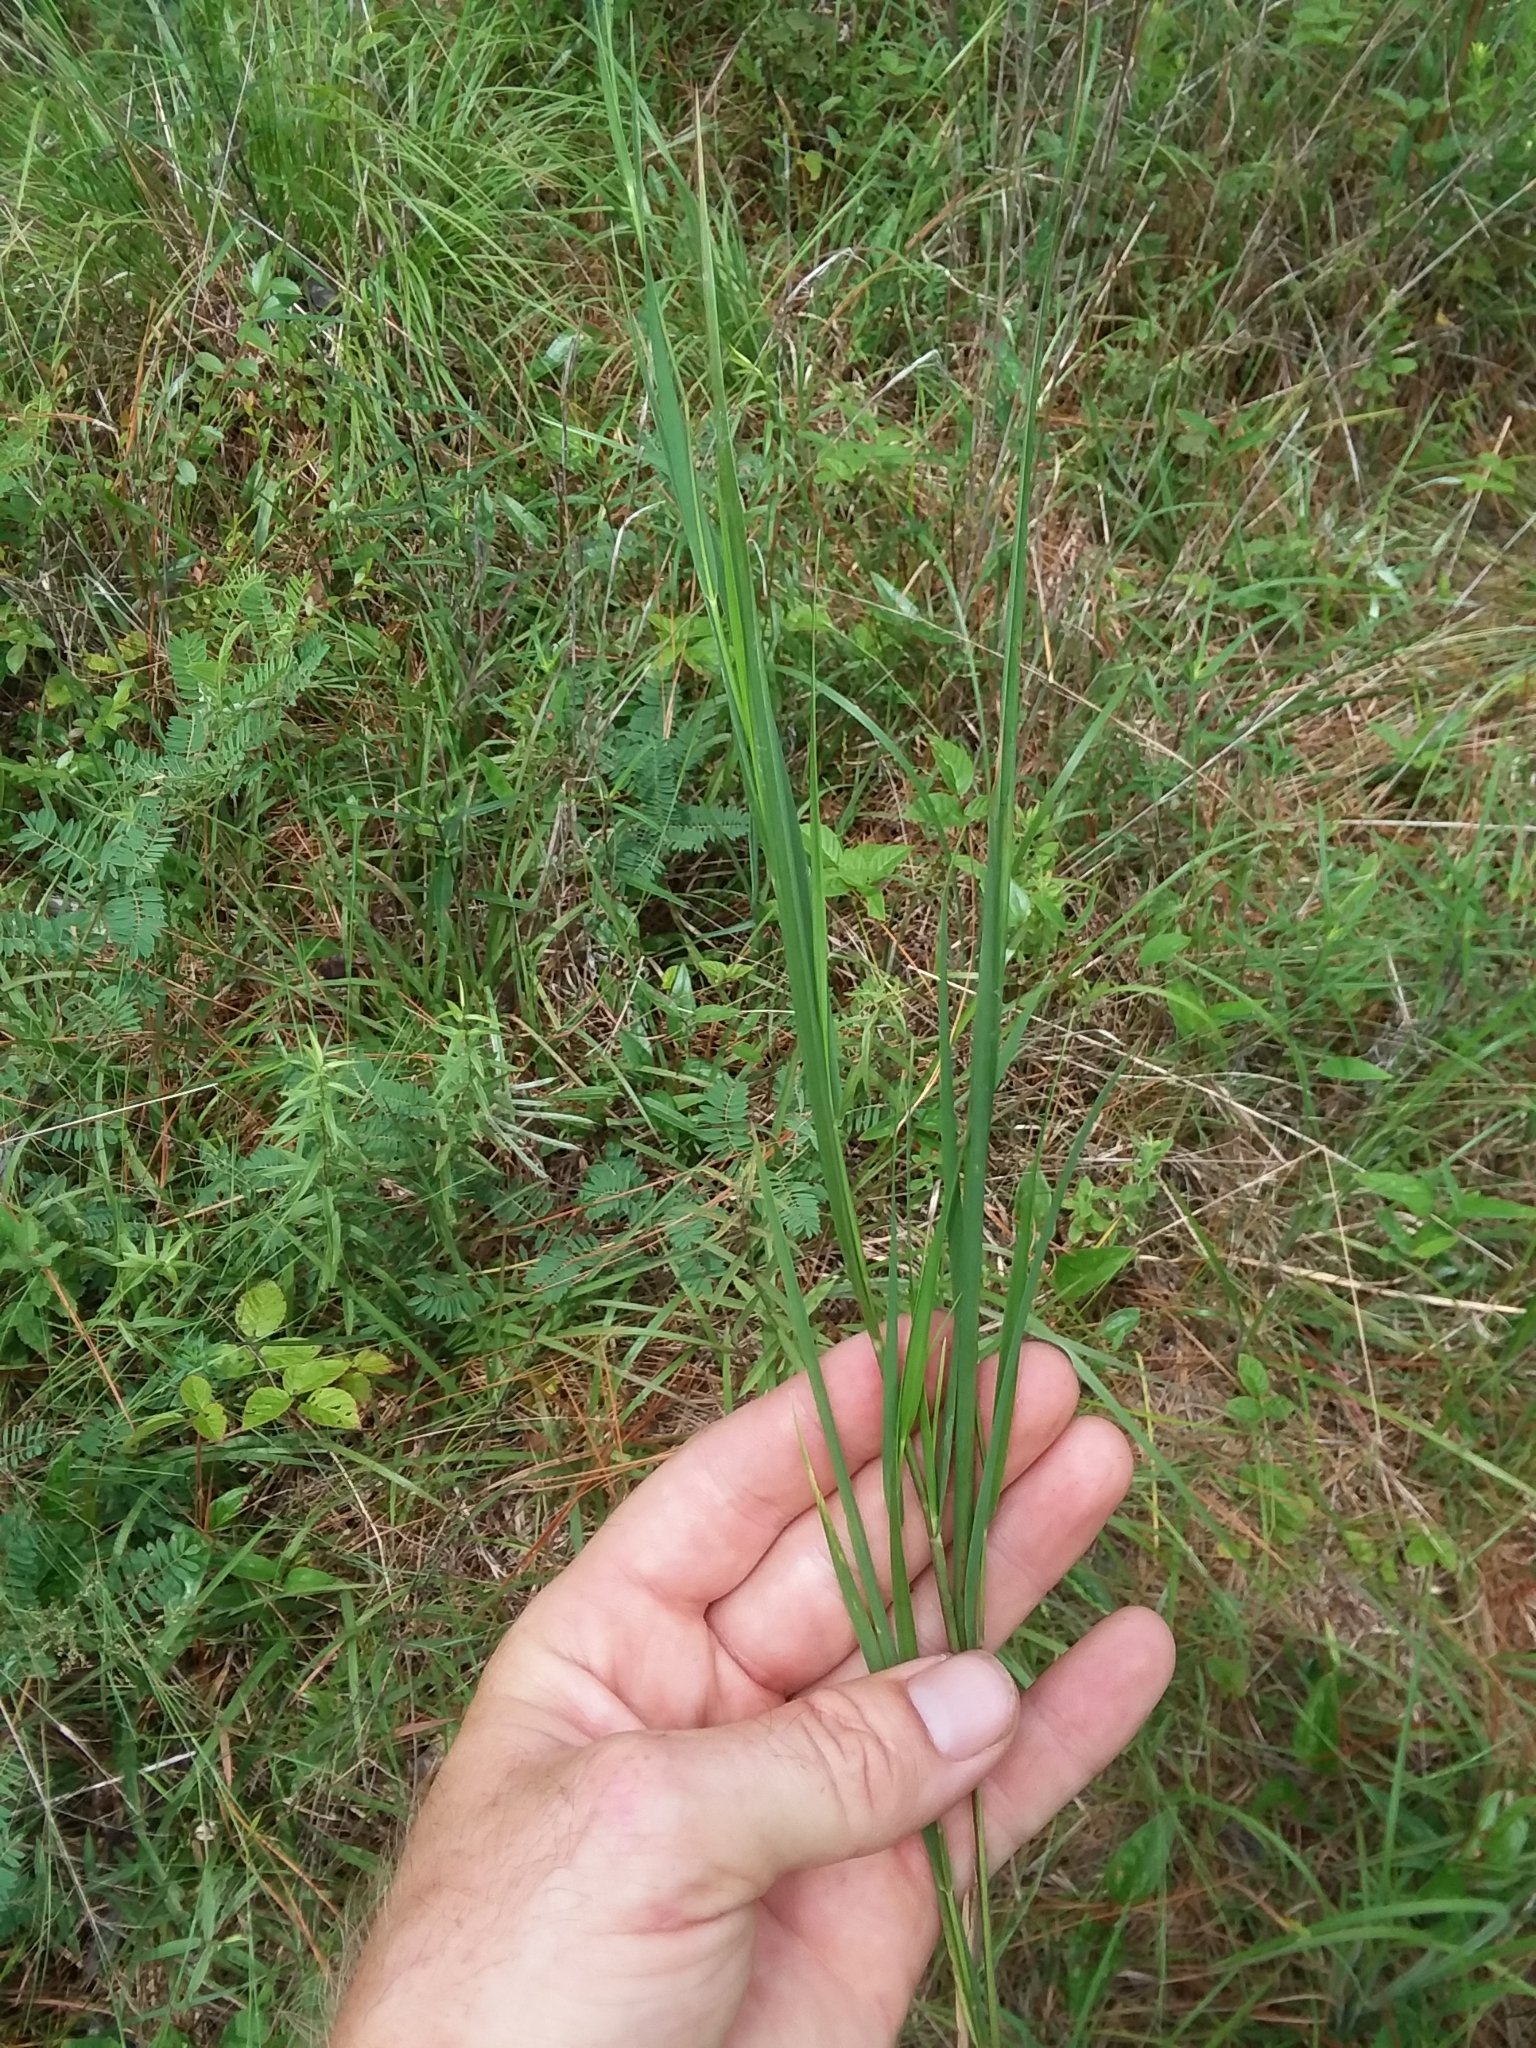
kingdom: Plantae
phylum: Tracheophyta
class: Liliopsida
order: Poales
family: Poaceae
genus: Dichanthelium
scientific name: Dichanthelium angustifolium
